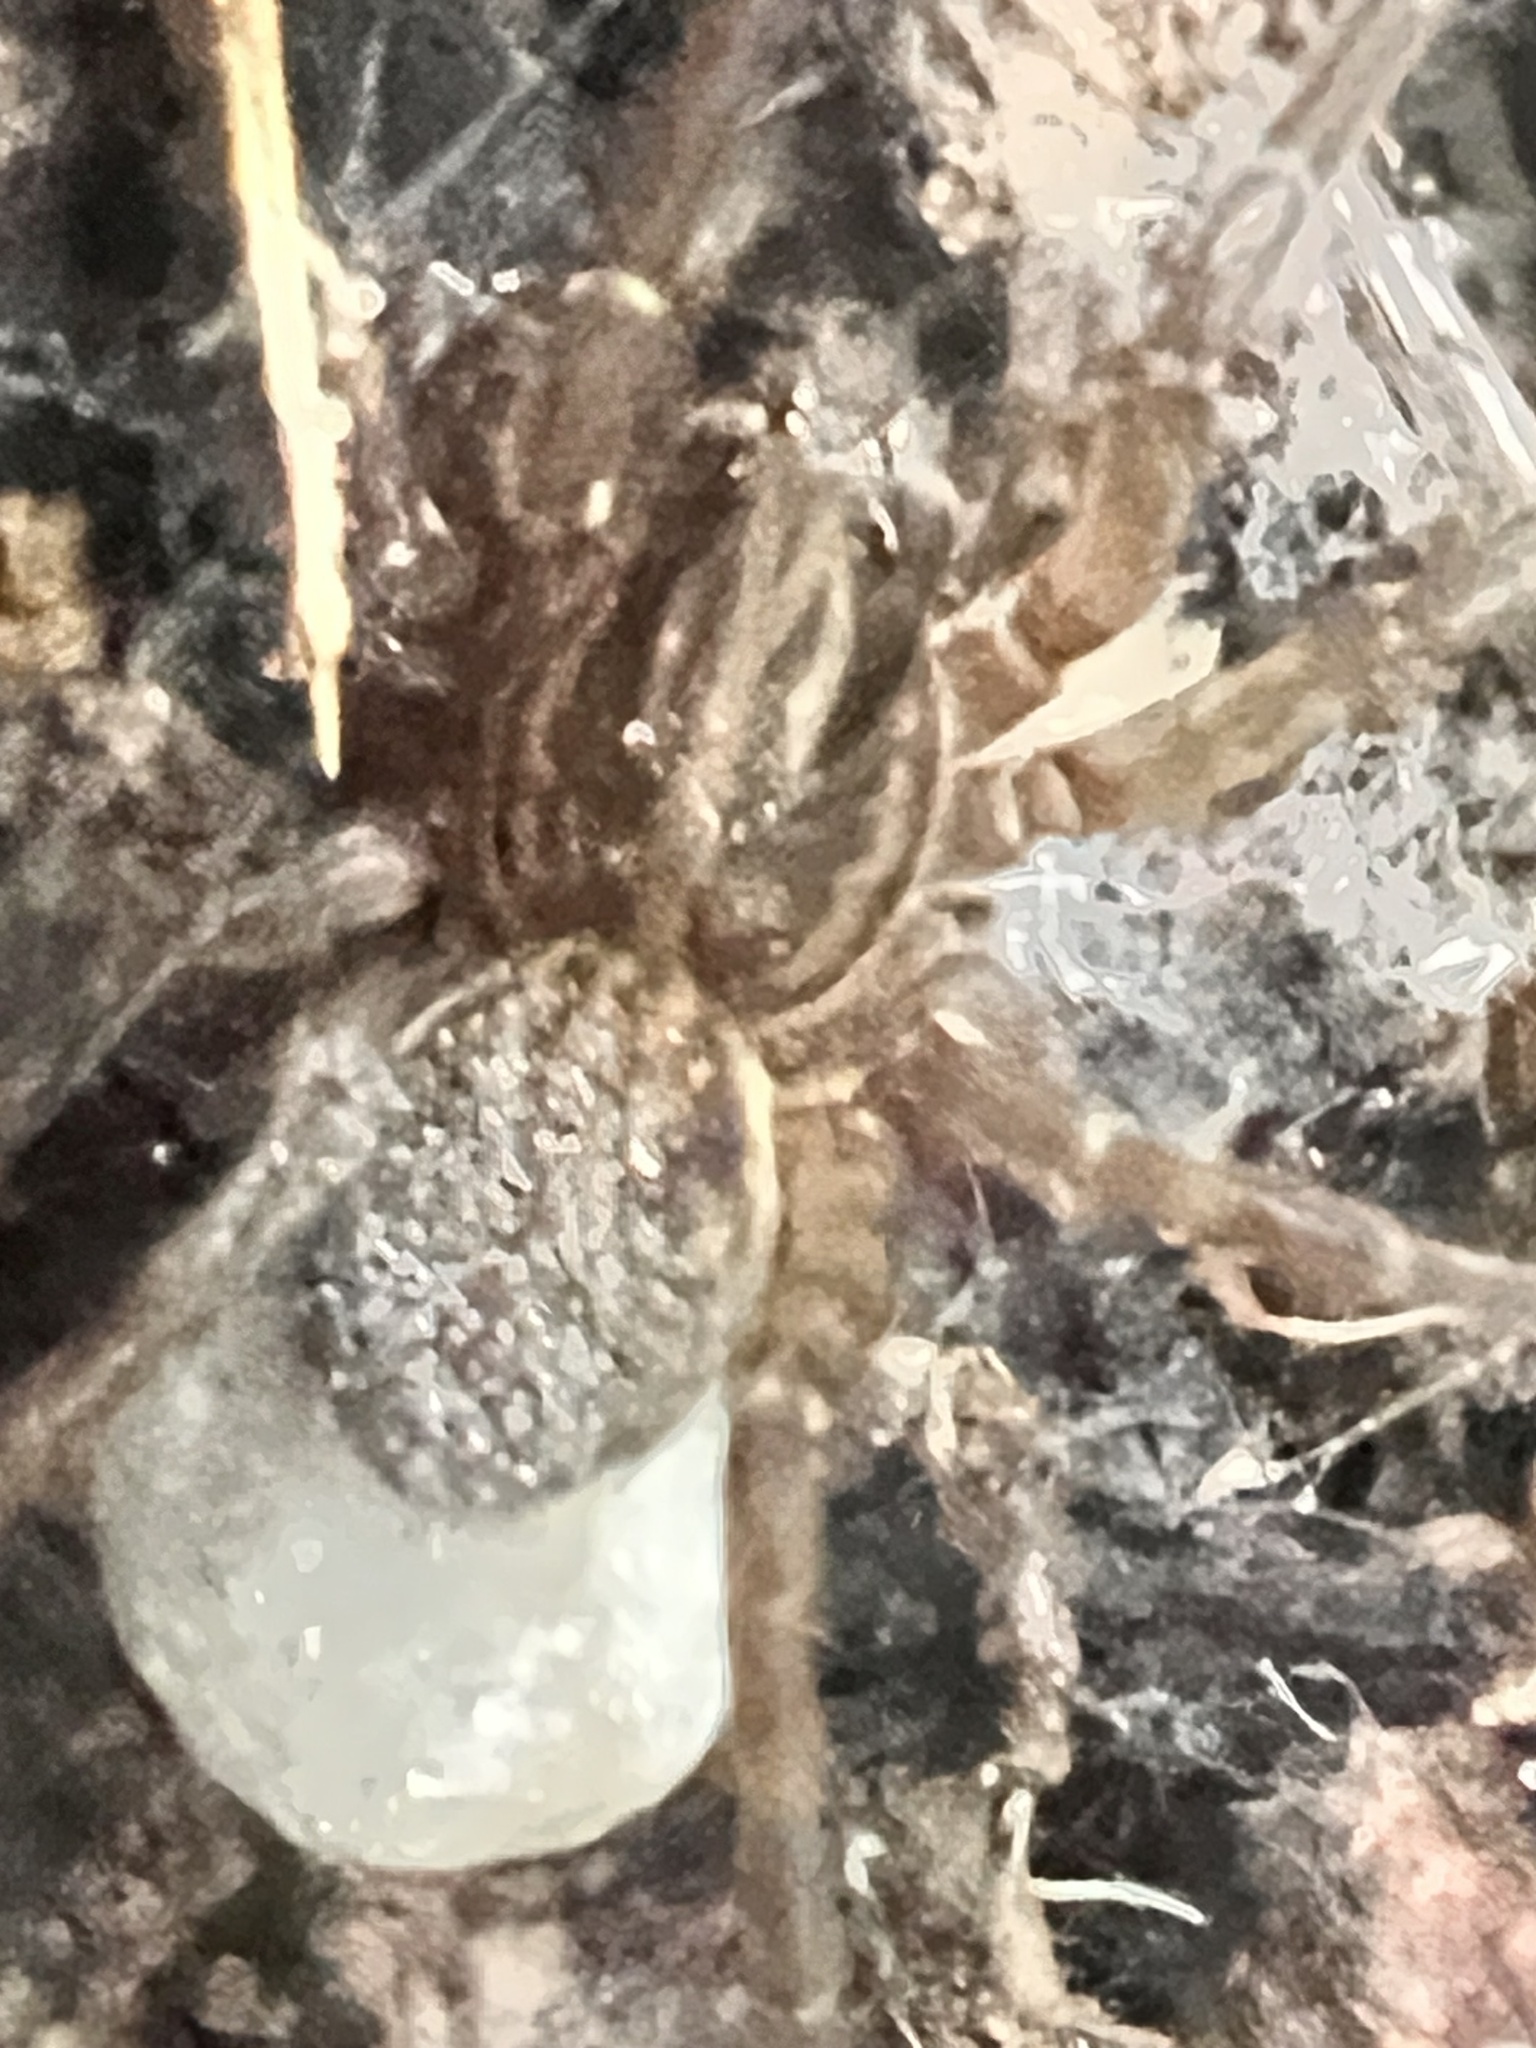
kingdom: Animalia
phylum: Arthropoda
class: Arachnida
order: Araneae
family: Lycosidae
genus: Allotrochosina
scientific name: Allotrochosina schauinslandi
